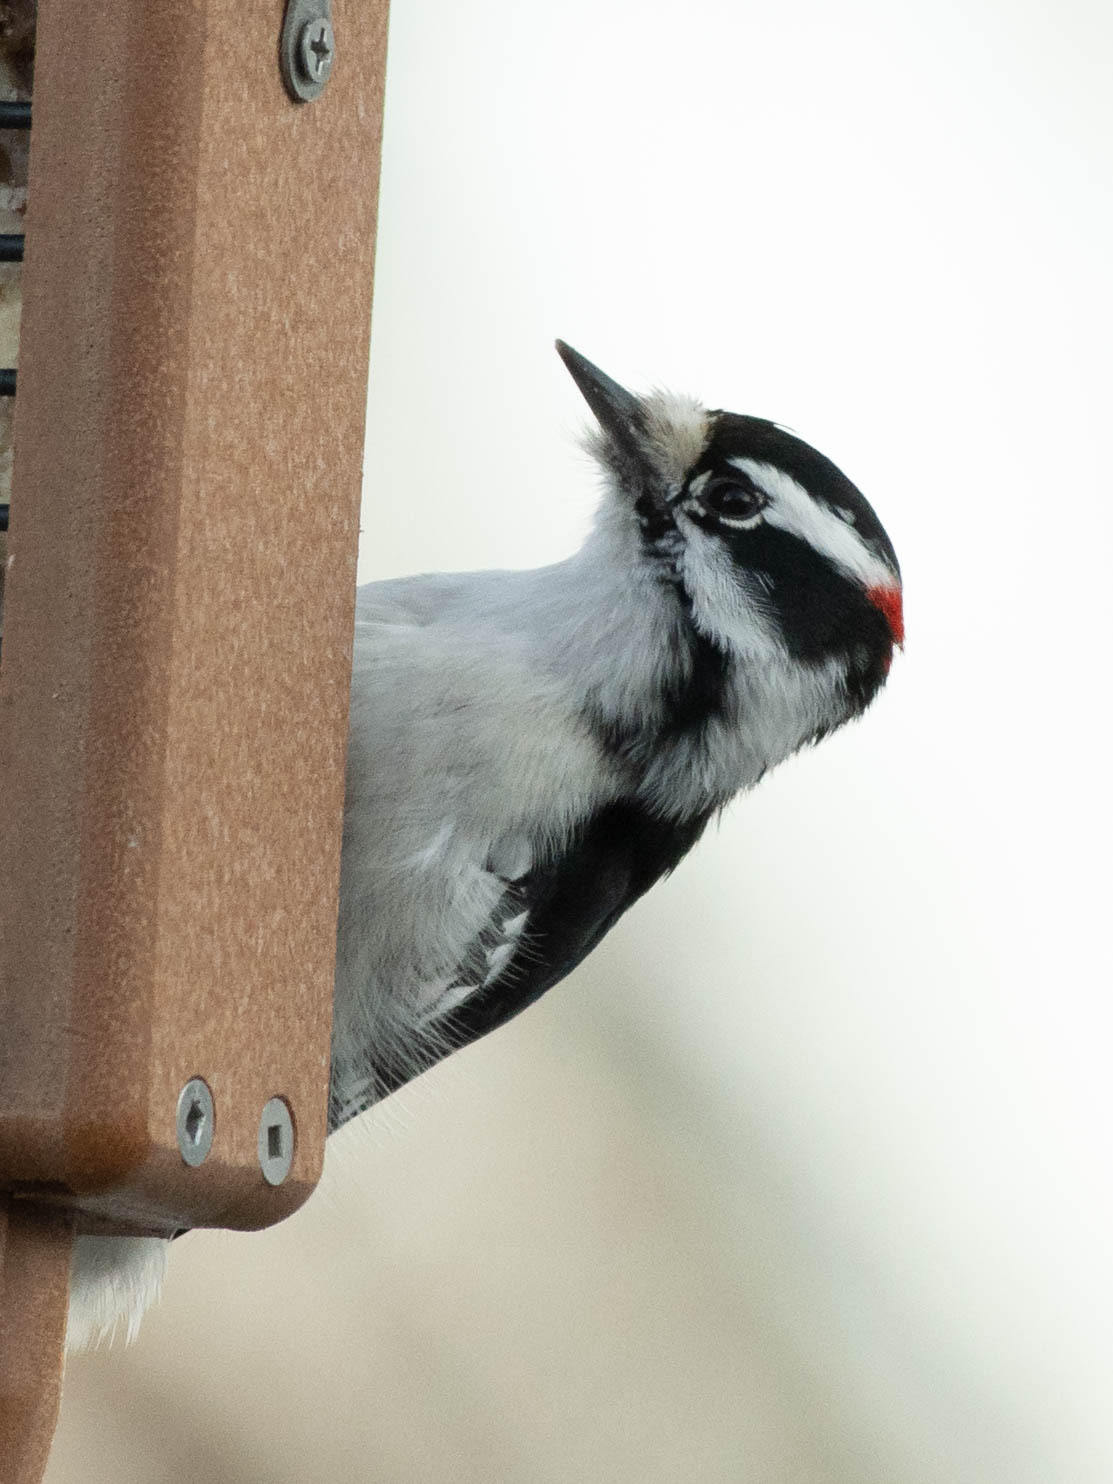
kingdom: Animalia
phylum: Chordata
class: Aves
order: Piciformes
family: Picidae
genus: Dryobates
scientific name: Dryobates pubescens
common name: Downy woodpecker
